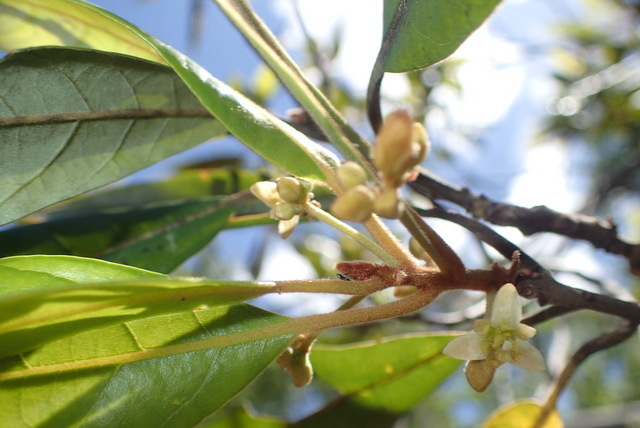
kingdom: Plantae
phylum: Tracheophyta
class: Magnoliopsida
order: Laurales
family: Lauraceae
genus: Persea
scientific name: Persea palustris
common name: Swampbay
